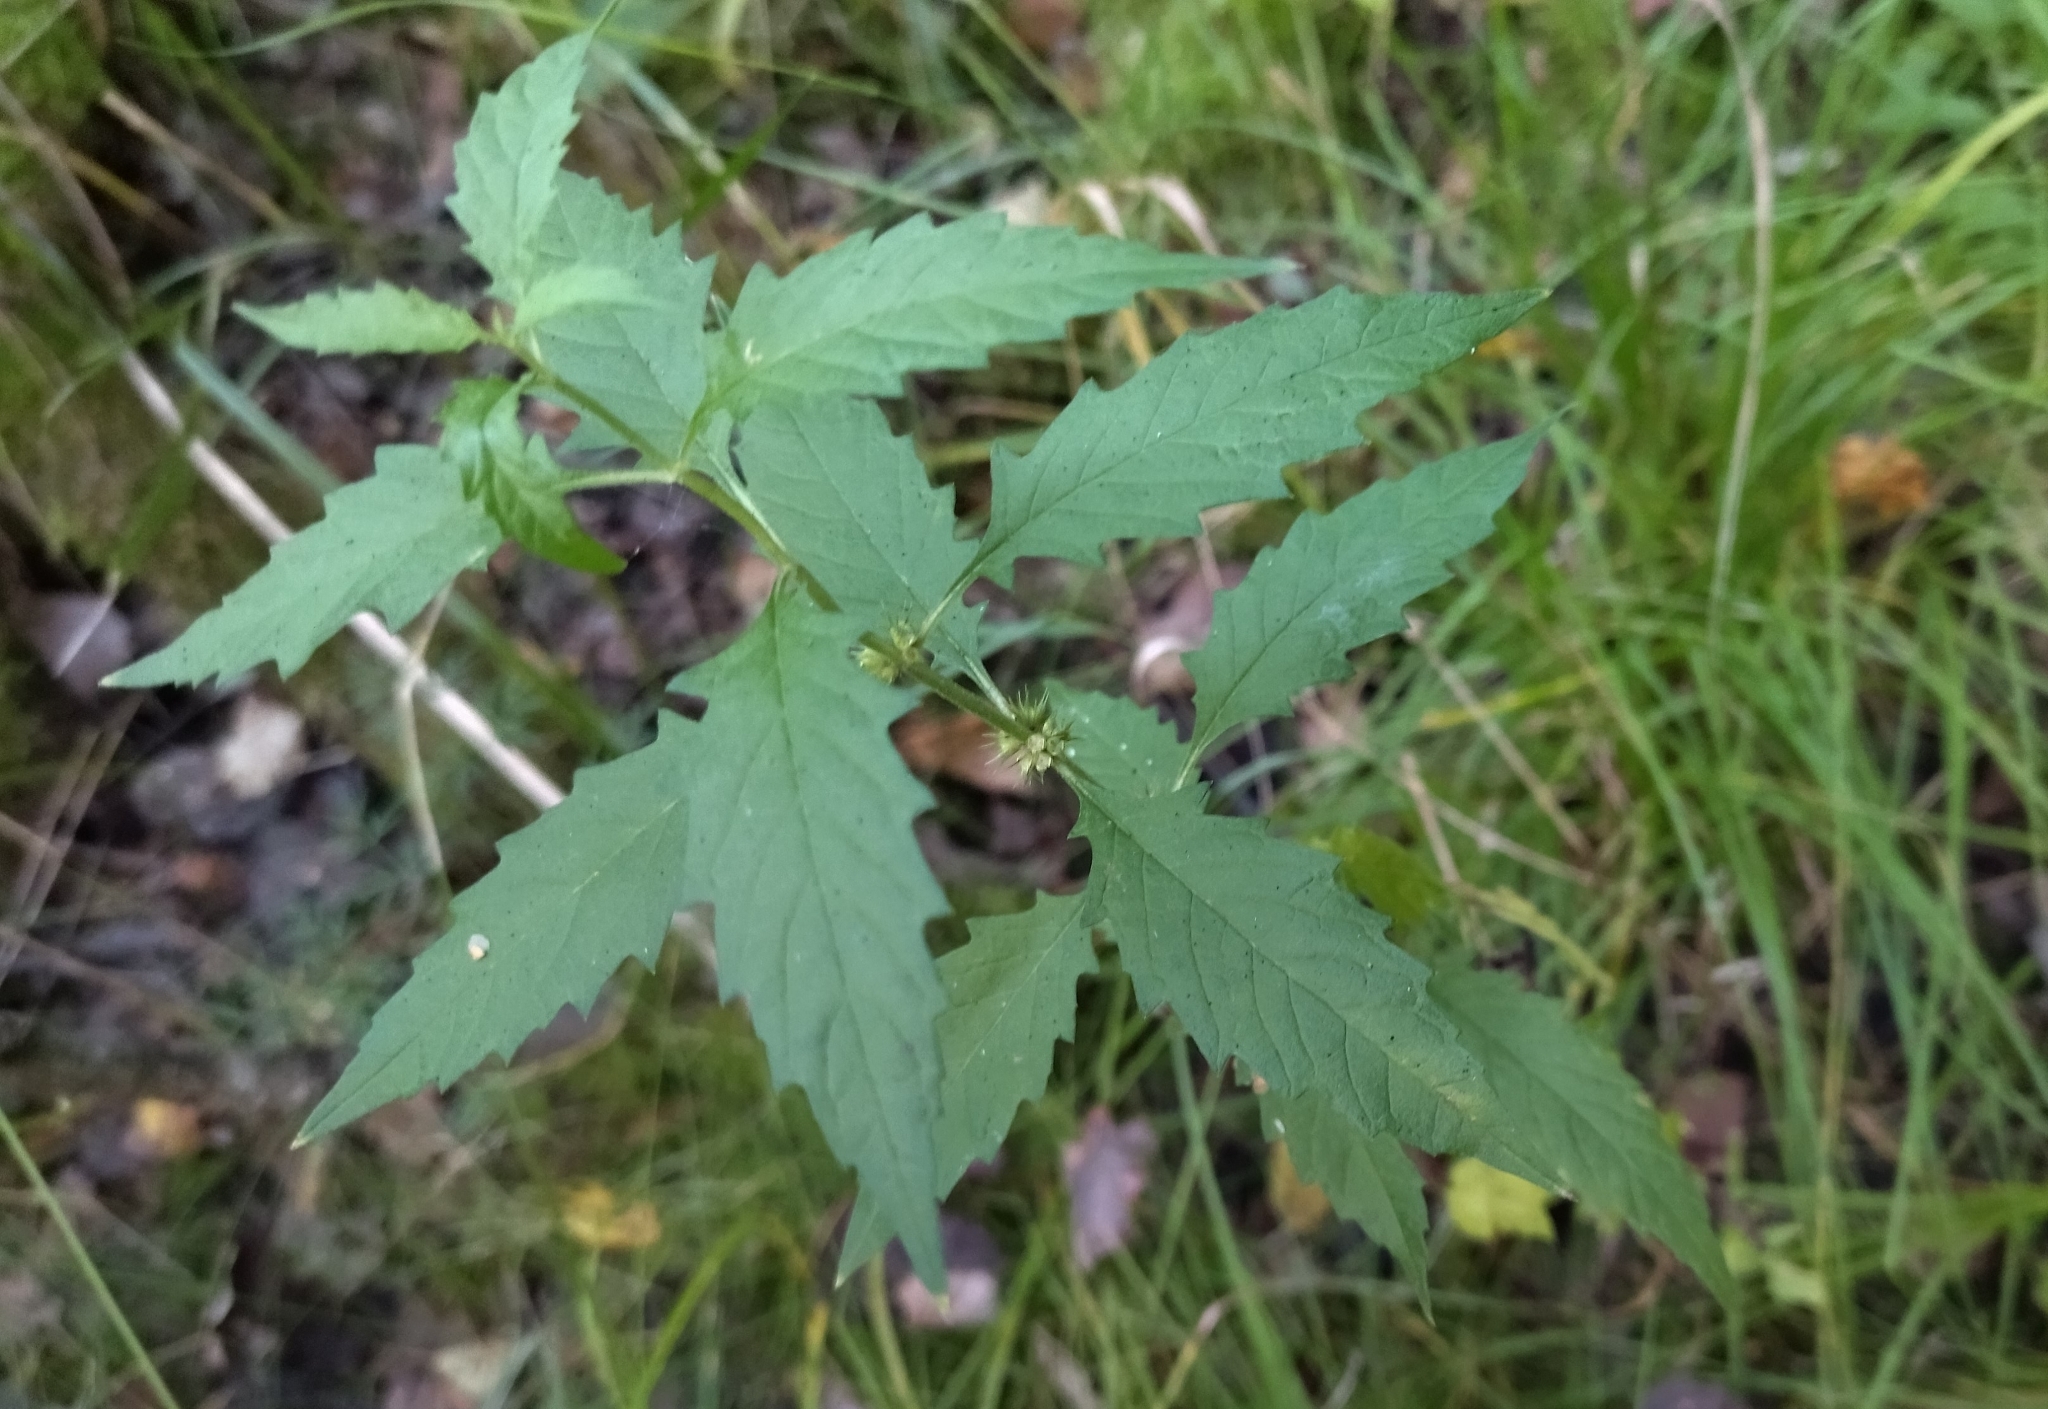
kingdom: Plantae
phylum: Tracheophyta
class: Magnoliopsida
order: Lamiales
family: Lamiaceae
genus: Lycopus
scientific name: Lycopus europaeus
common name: European bugleweed
